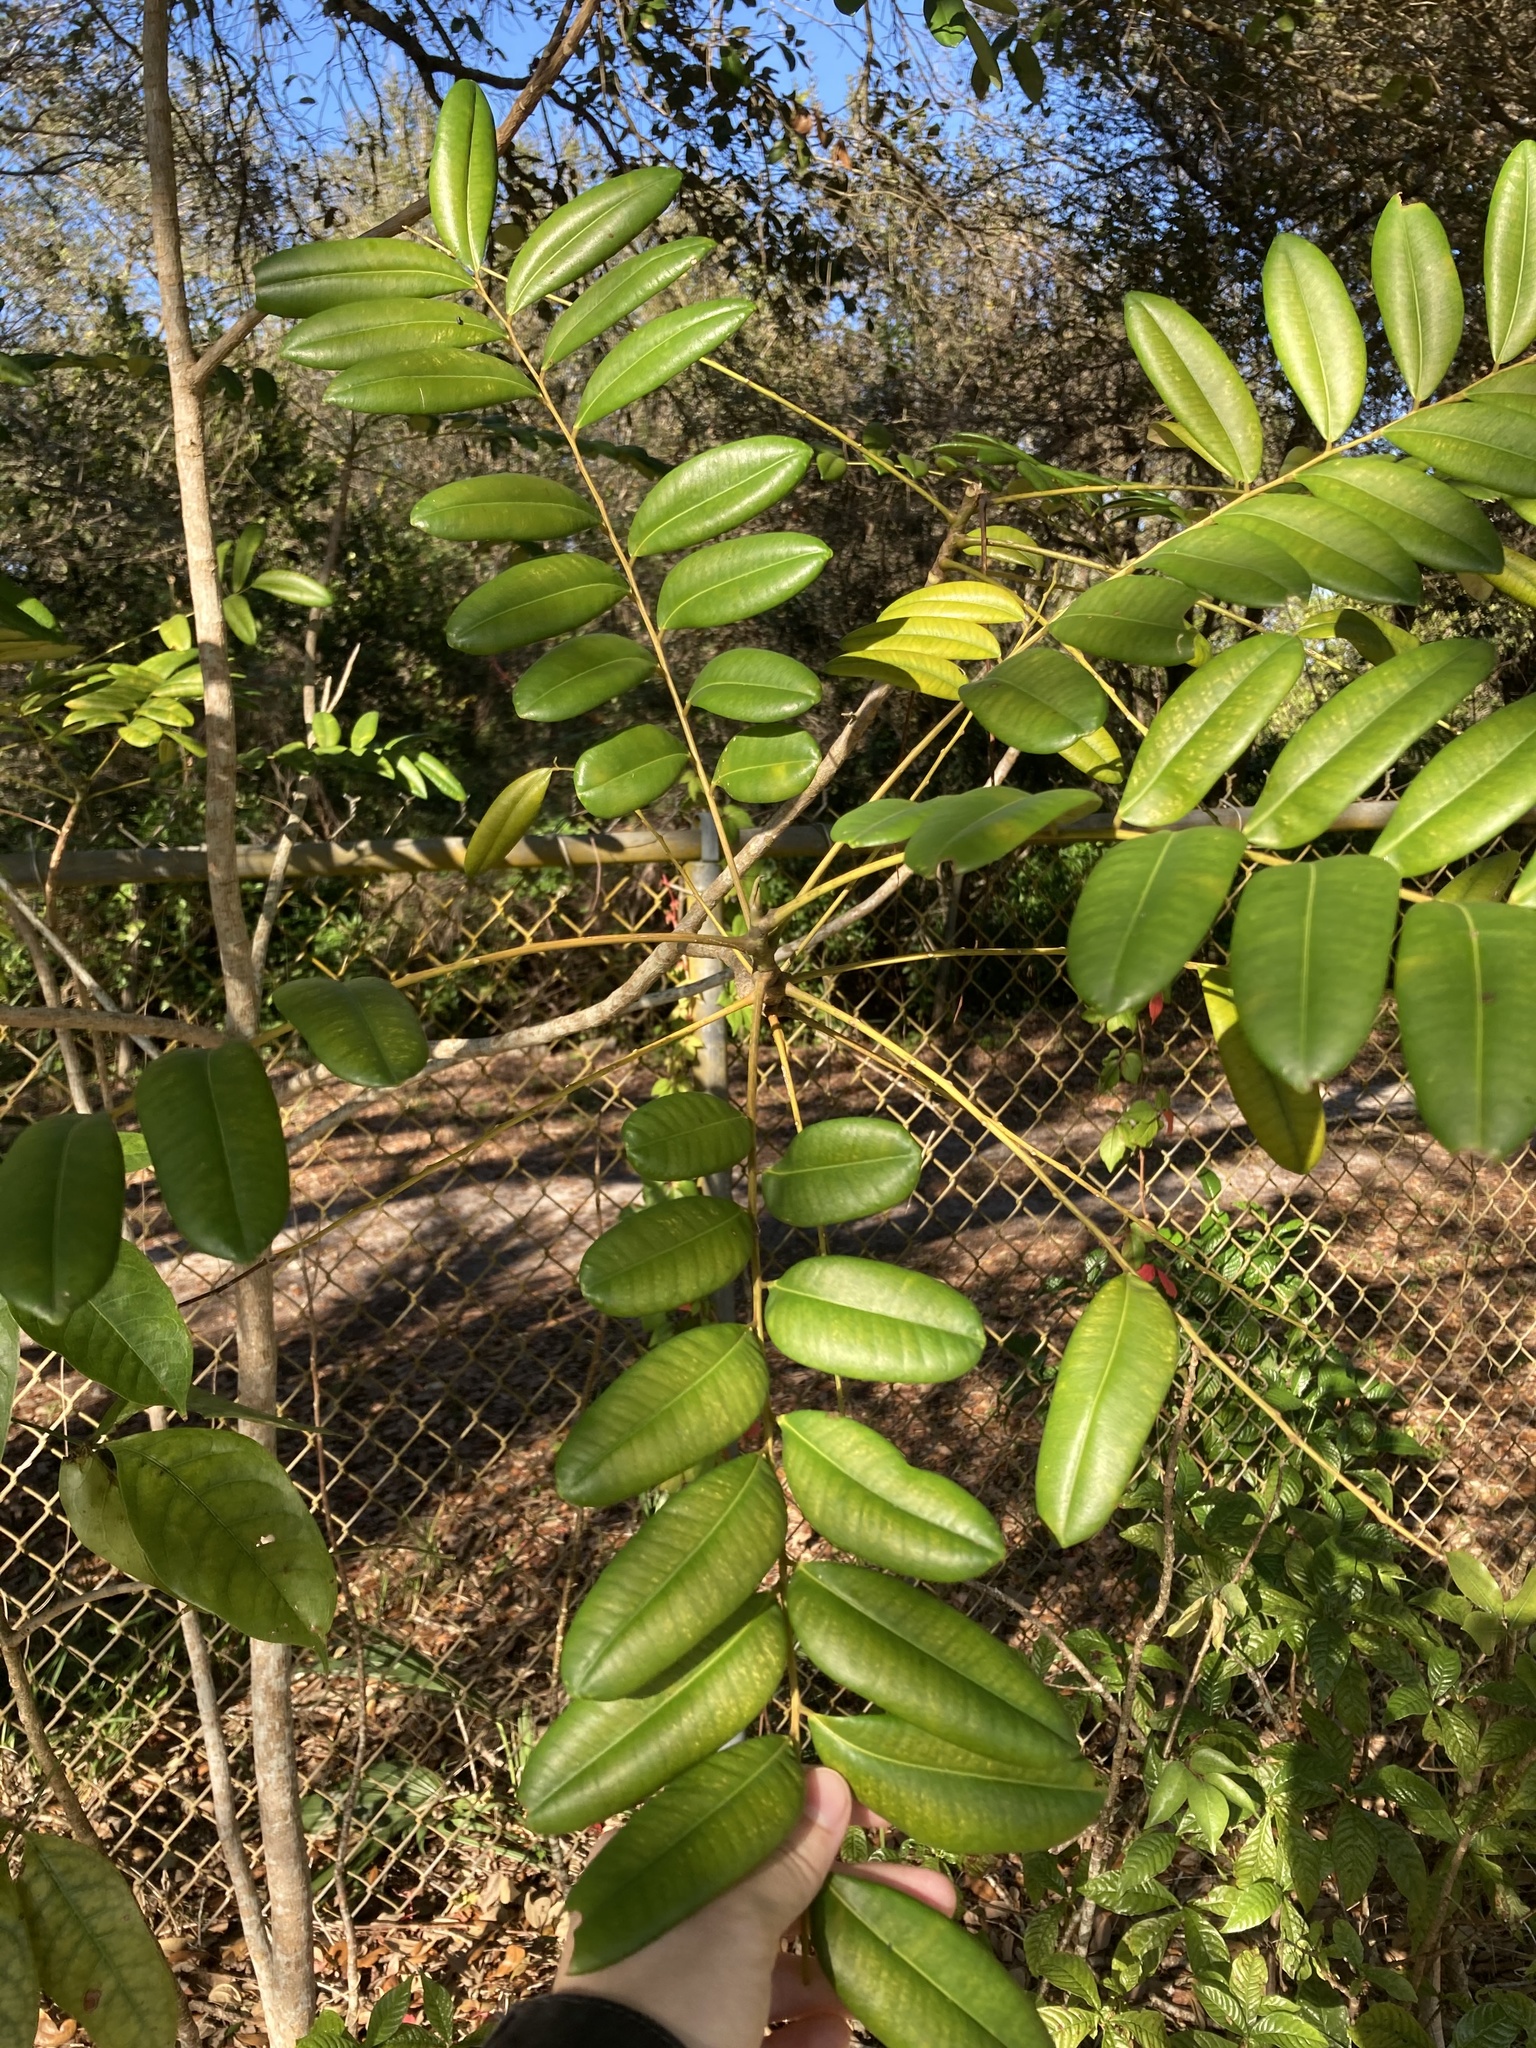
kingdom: Plantae
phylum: Tracheophyta
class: Magnoliopsida
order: Sapindales
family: Simaroubaceae
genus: Simarouba
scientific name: Simarouba glauca
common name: Dysentery-bark
